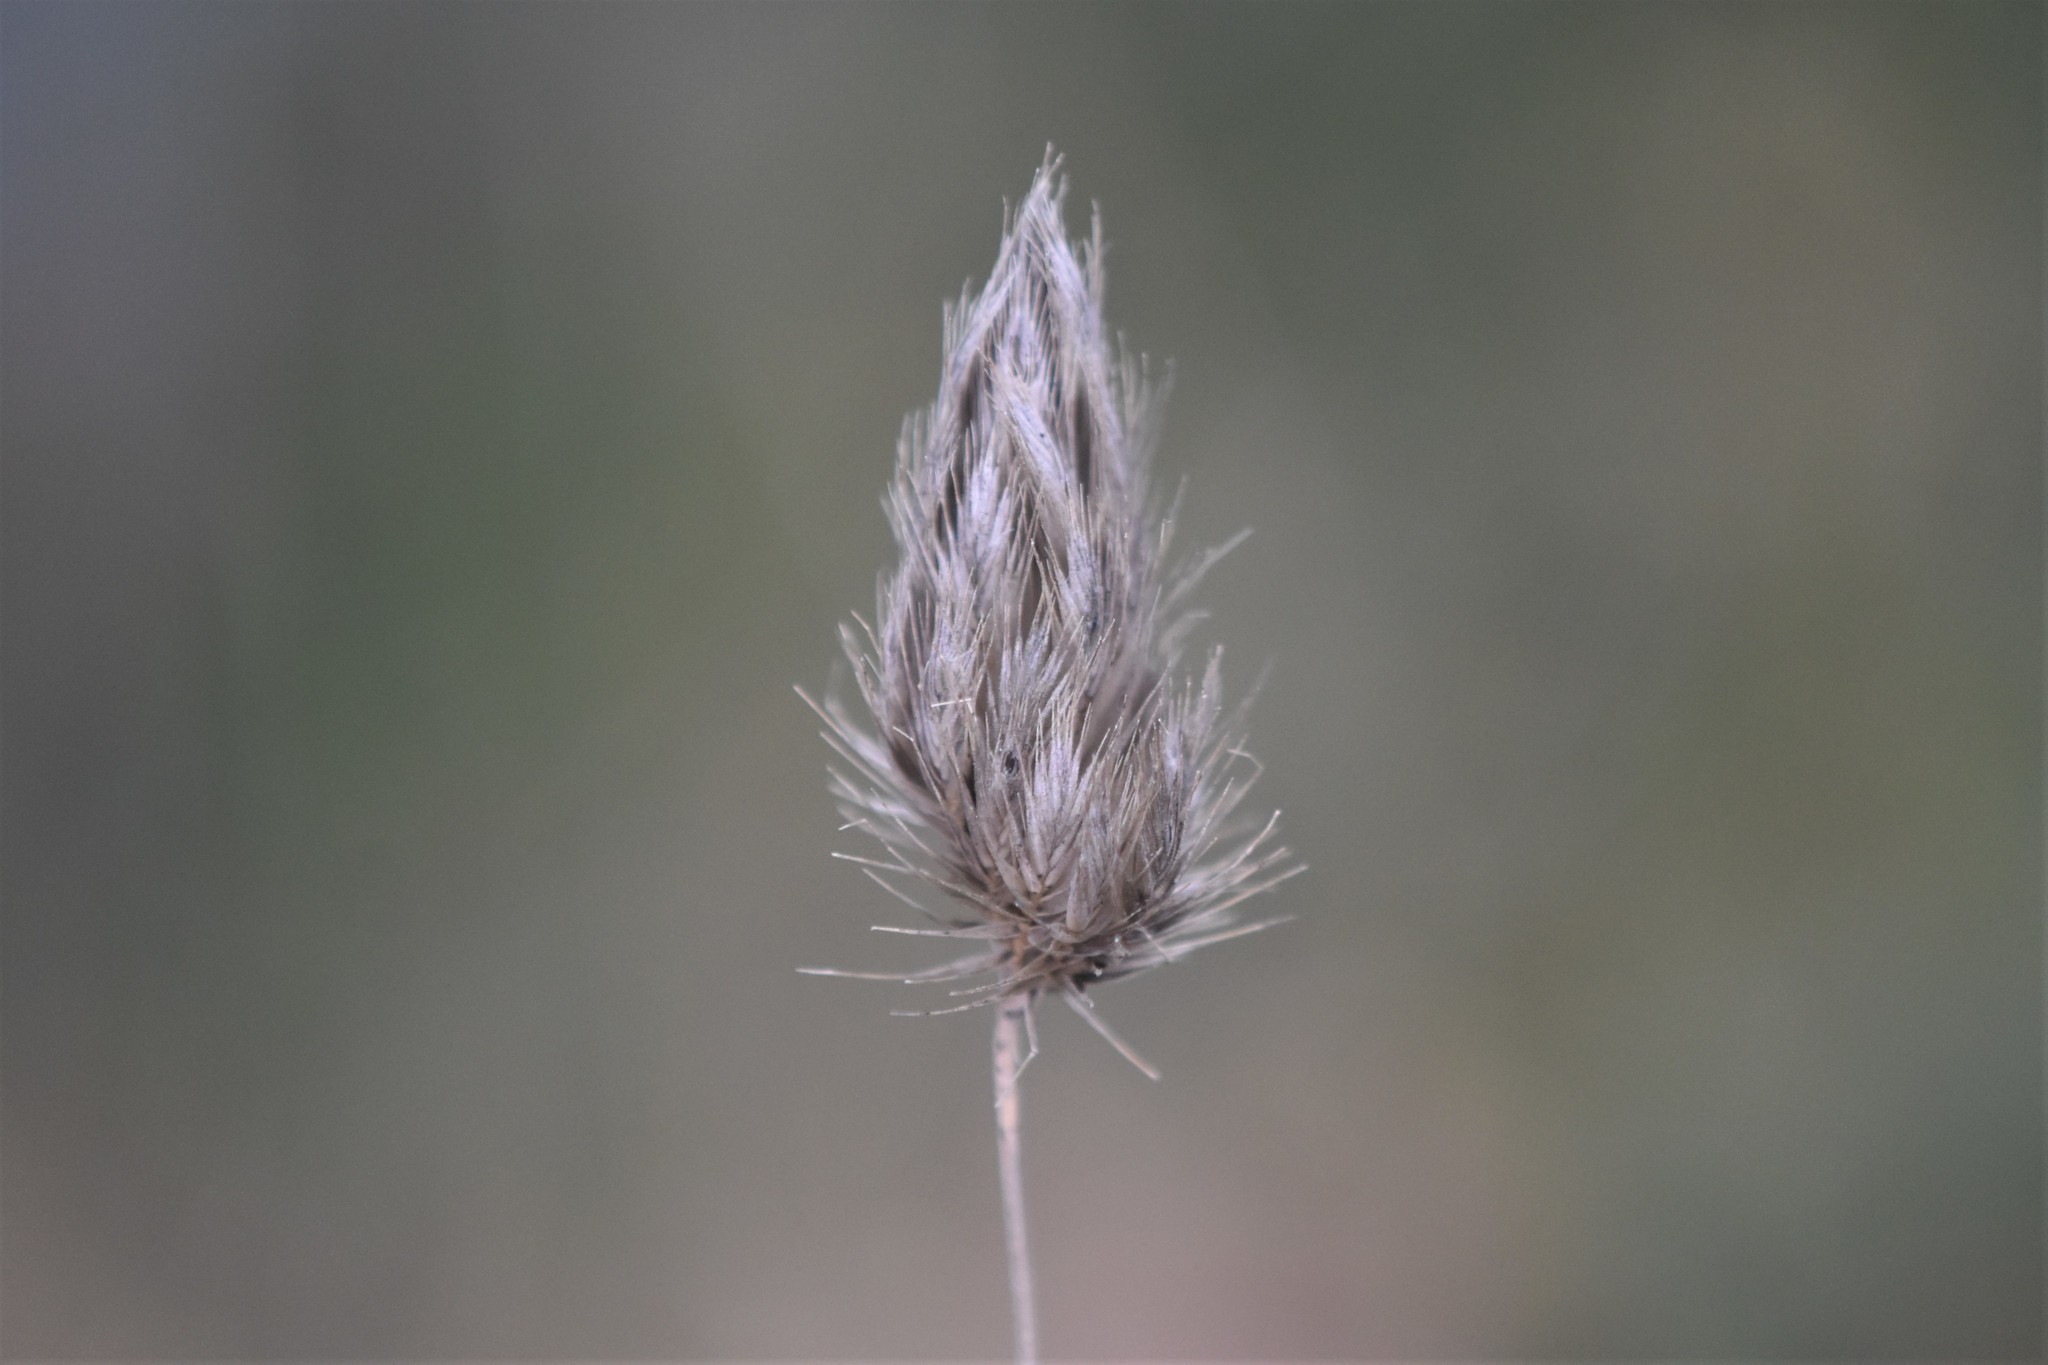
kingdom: Plantae
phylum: Tracheophyta
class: Liliopsida
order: Poales
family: Poaceae
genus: Cynosurus
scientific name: Cynosurus echinatus
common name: Rough dog's-tail
